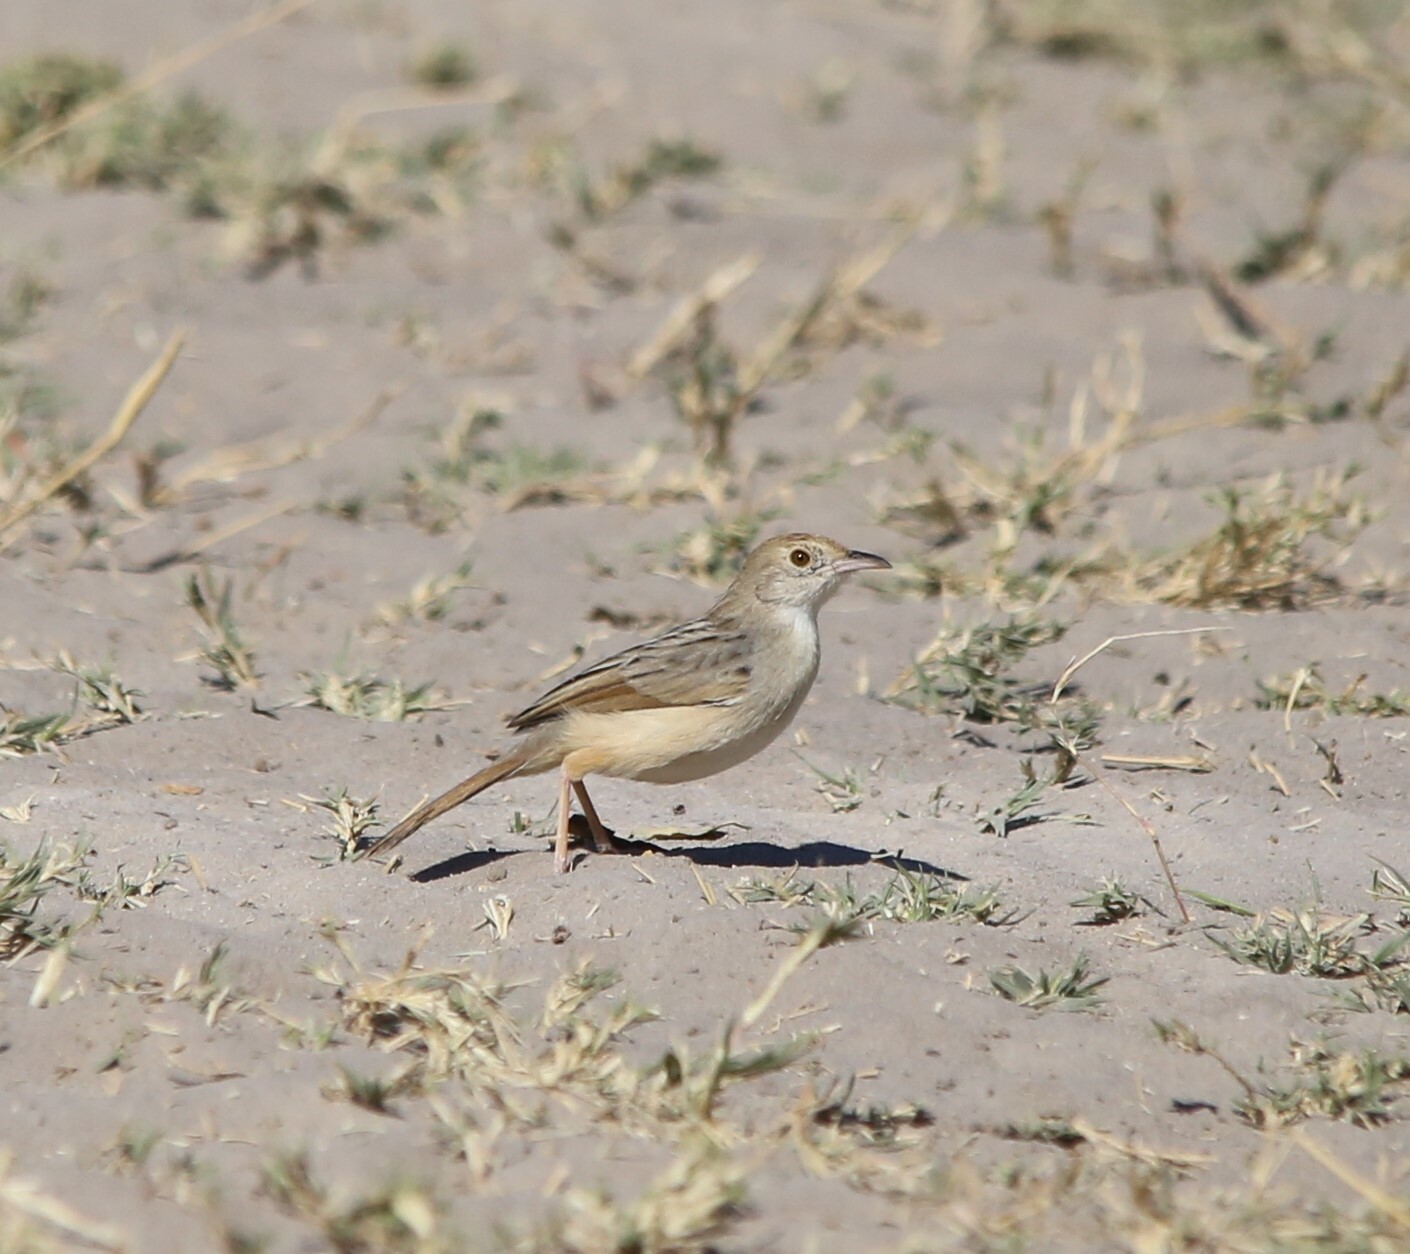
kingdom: Animalia
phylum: Chordata
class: Aves
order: Passeriformes
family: Cisticolidae
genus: Cisticola
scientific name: Cisticola chiniana
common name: Rattling cisticola
